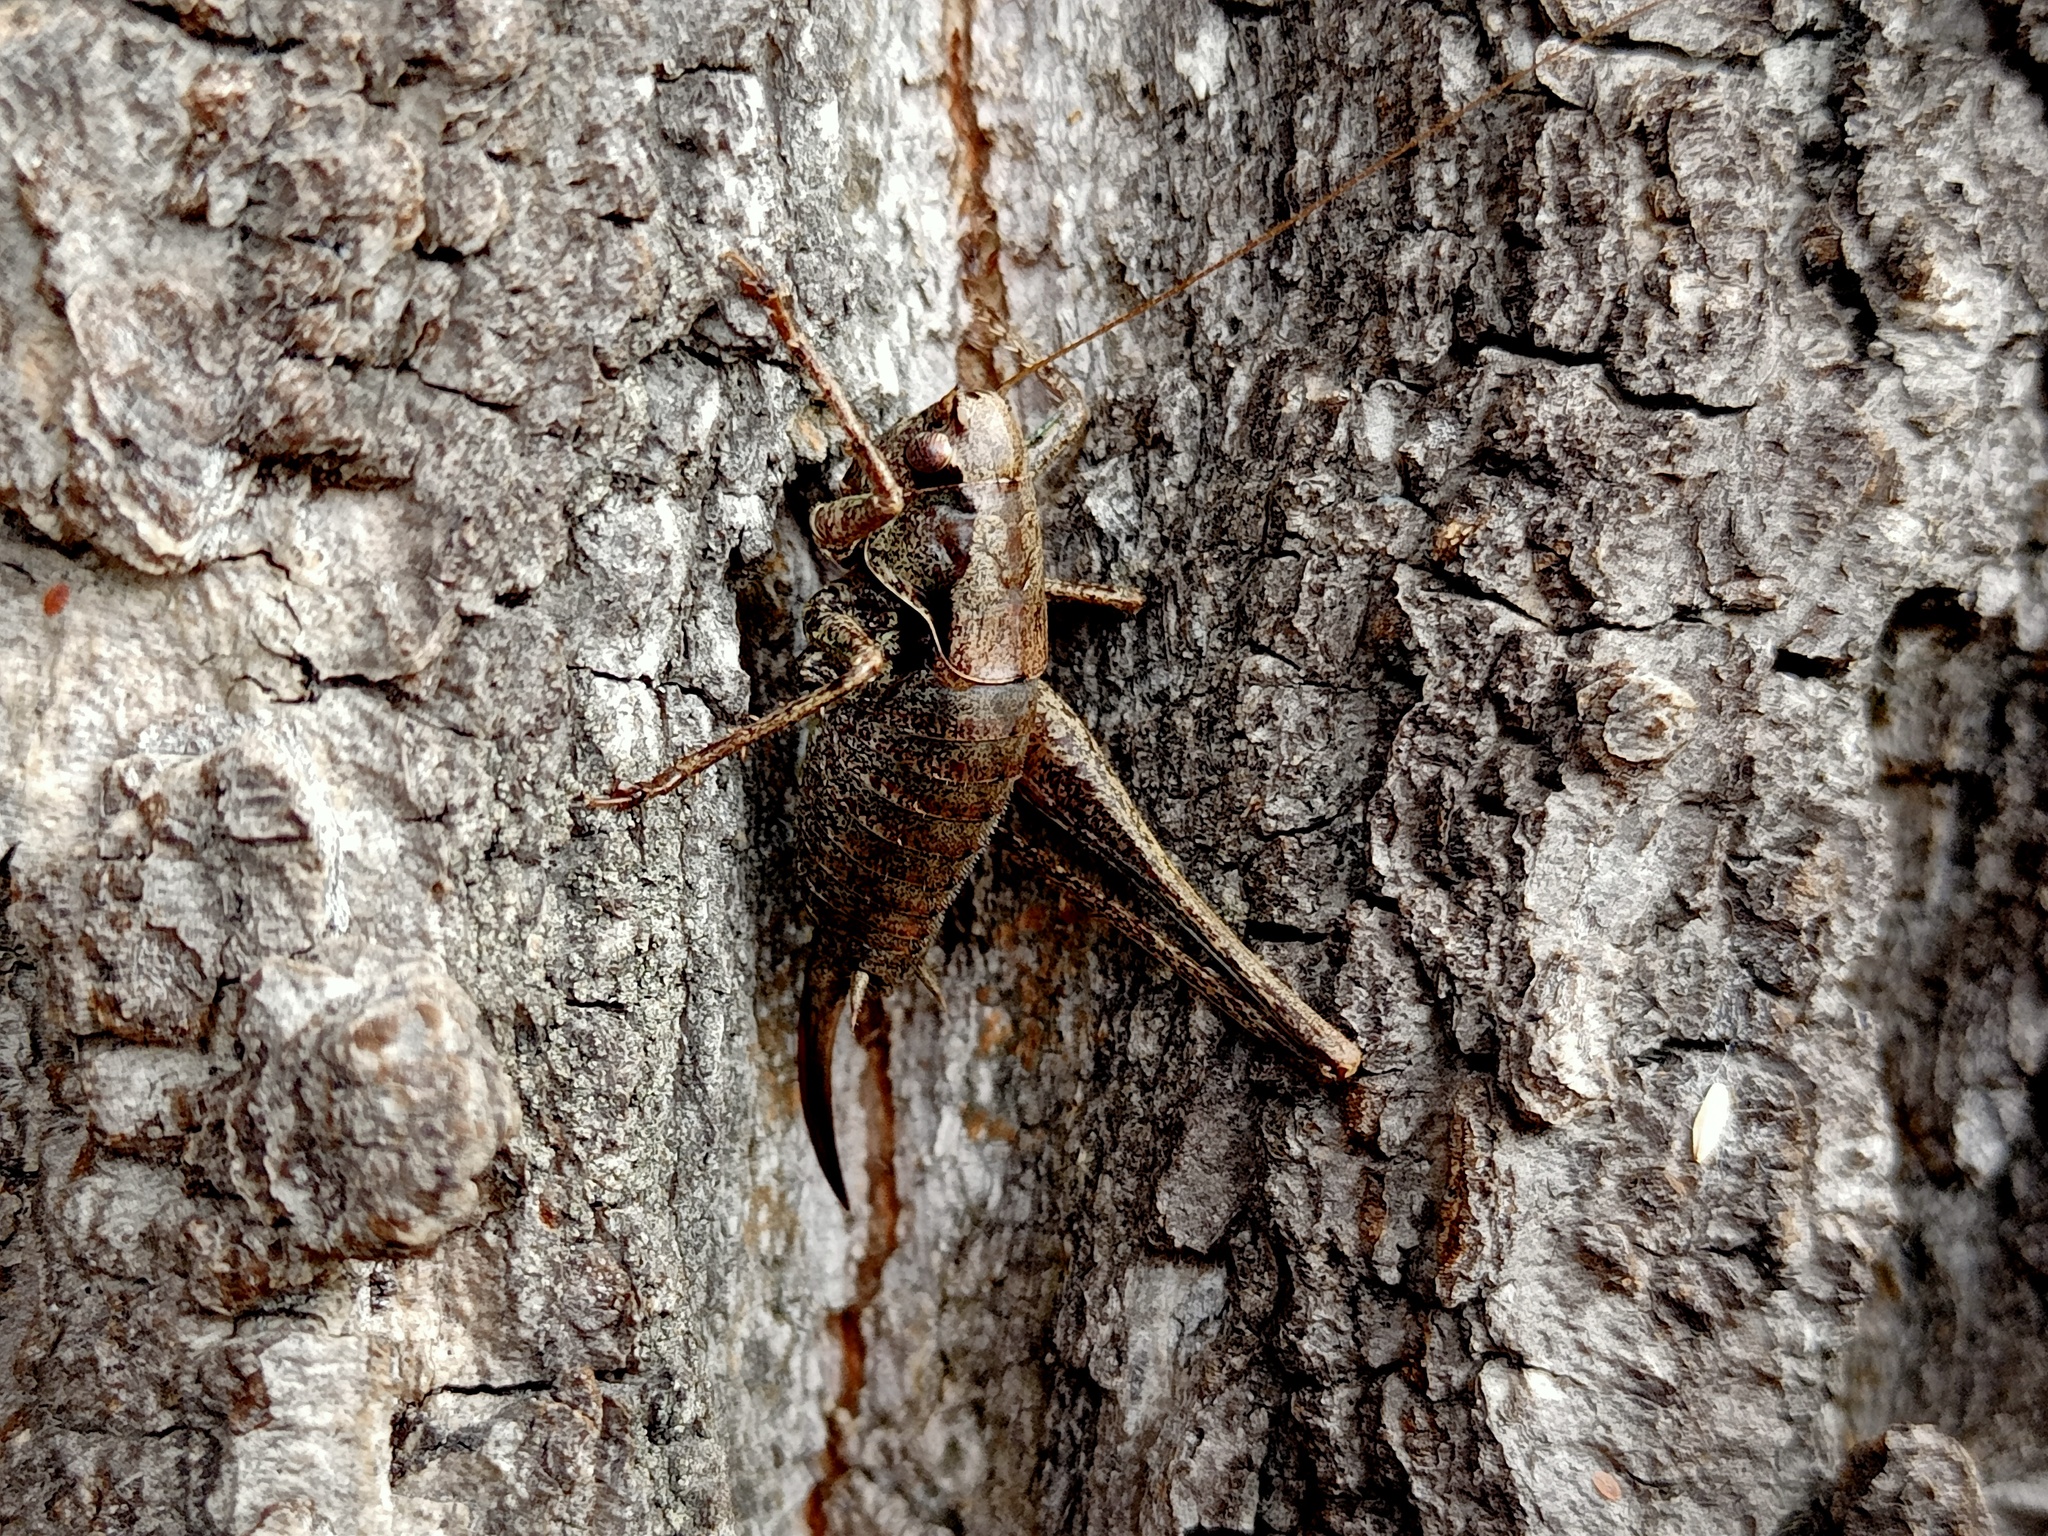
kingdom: Animalia
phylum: Arthropoda
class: Insecta
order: Orthoptera
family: Tettigoniidae
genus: Pholidoptera
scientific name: Pholidoptera griseoaptera
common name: Dark bush-cricket
